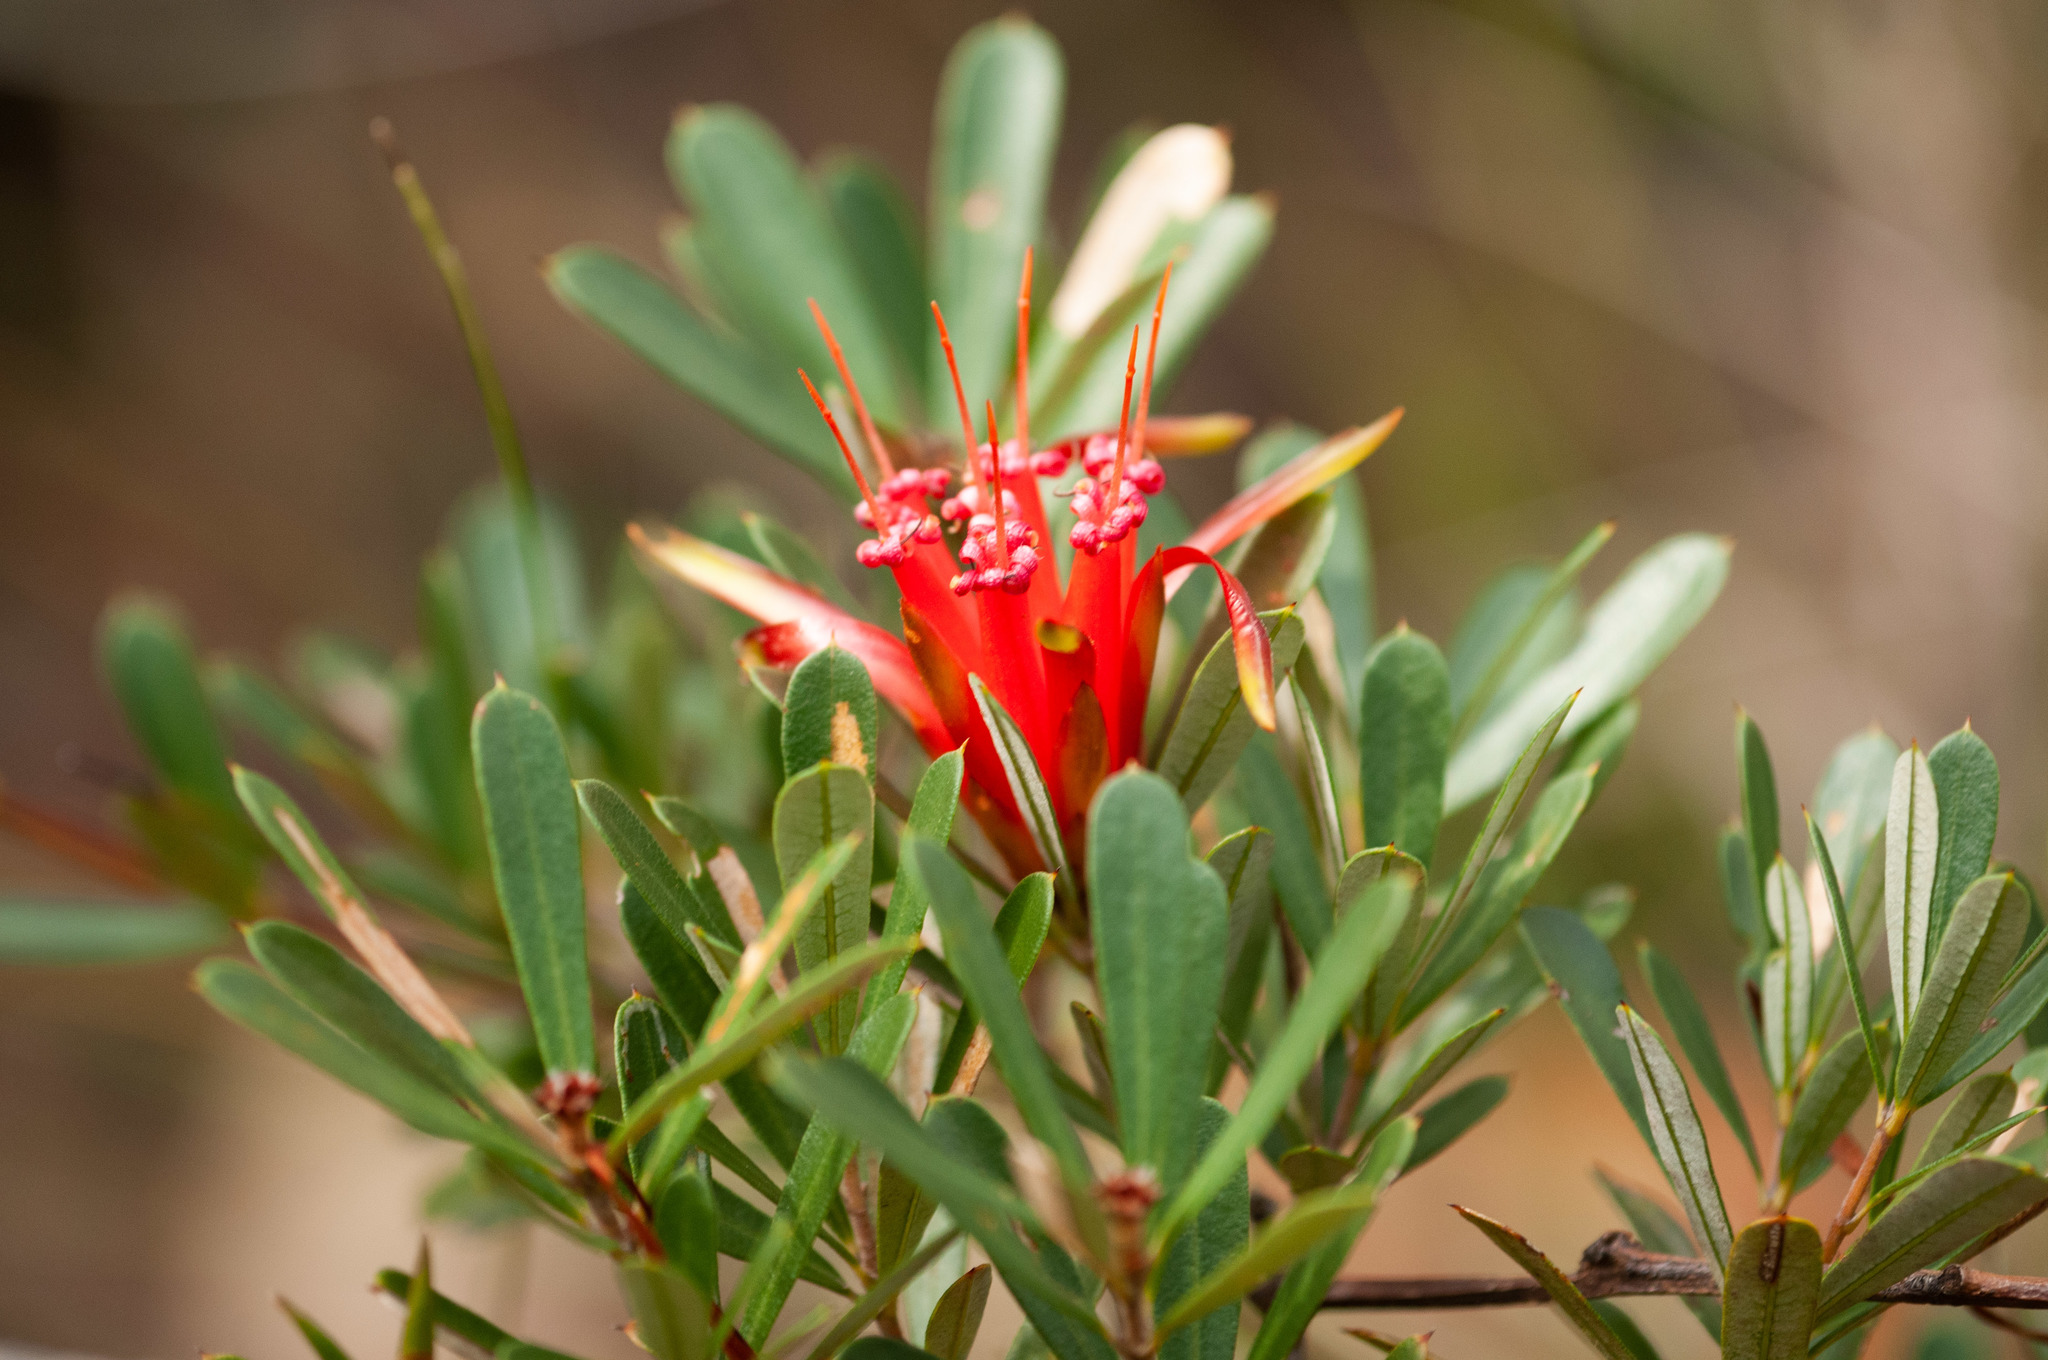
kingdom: Plantae
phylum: Tracheophyta
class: Magnoliopsida
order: Proteales
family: Proteaceae
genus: Lambertia
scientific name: Lambertia formosa
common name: Mountain-devil
